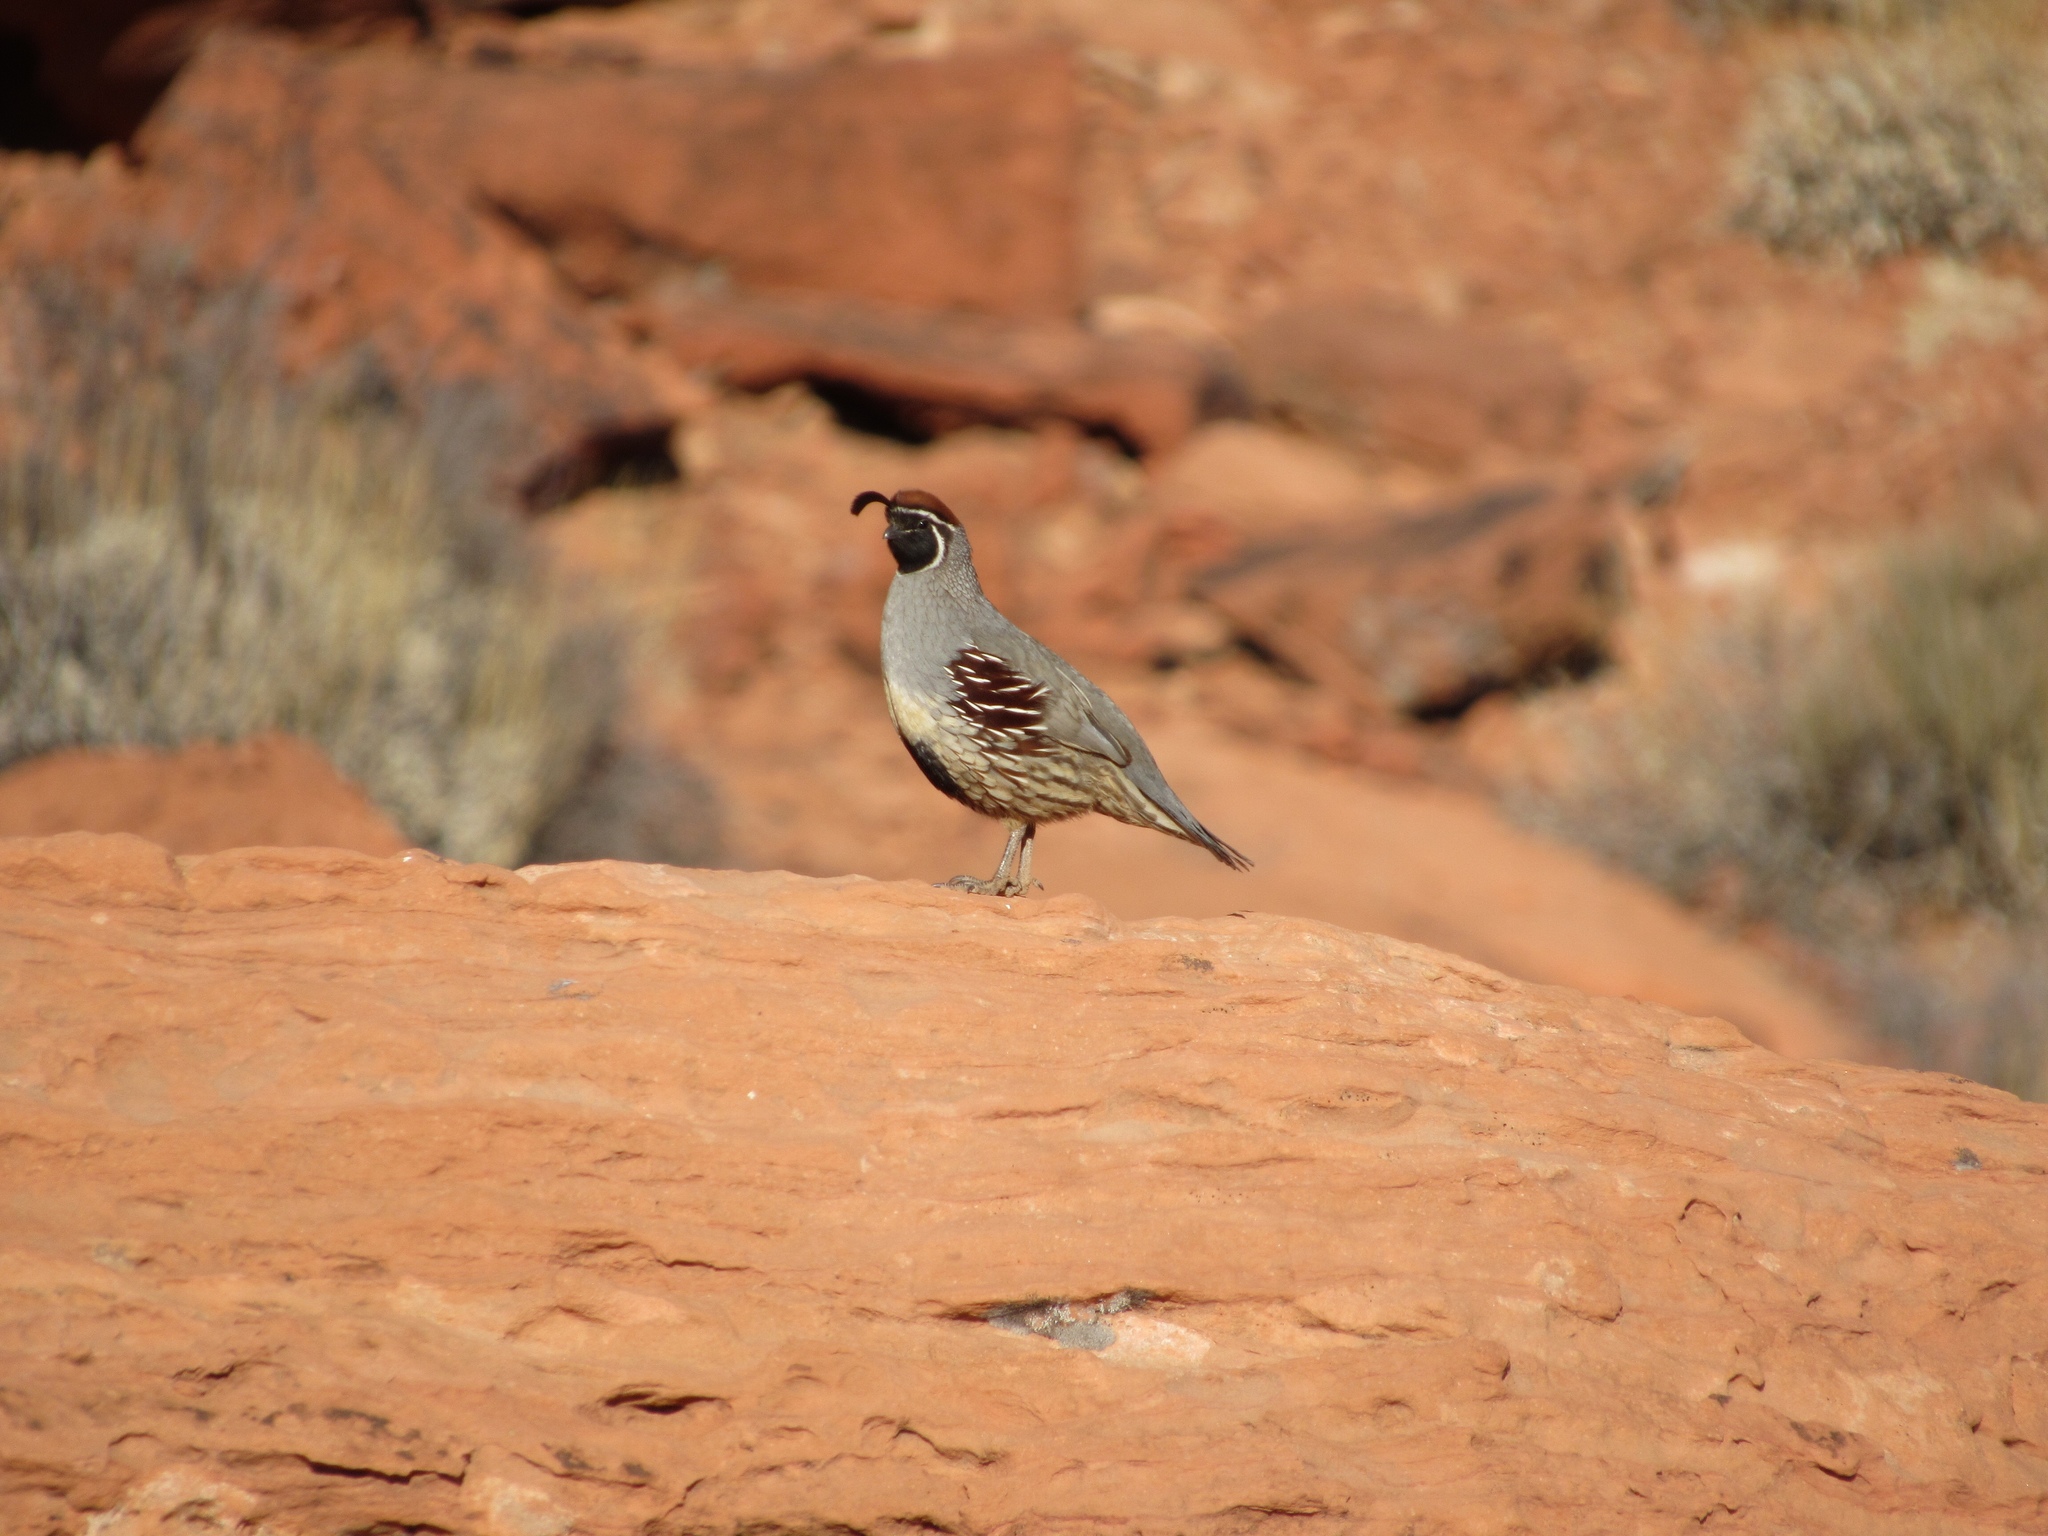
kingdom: Animalia
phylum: Chordata
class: Aves
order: Galliformes
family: Odontophoridae
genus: Callipepla
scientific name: Callipepla gambelii
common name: Gambel's quail
